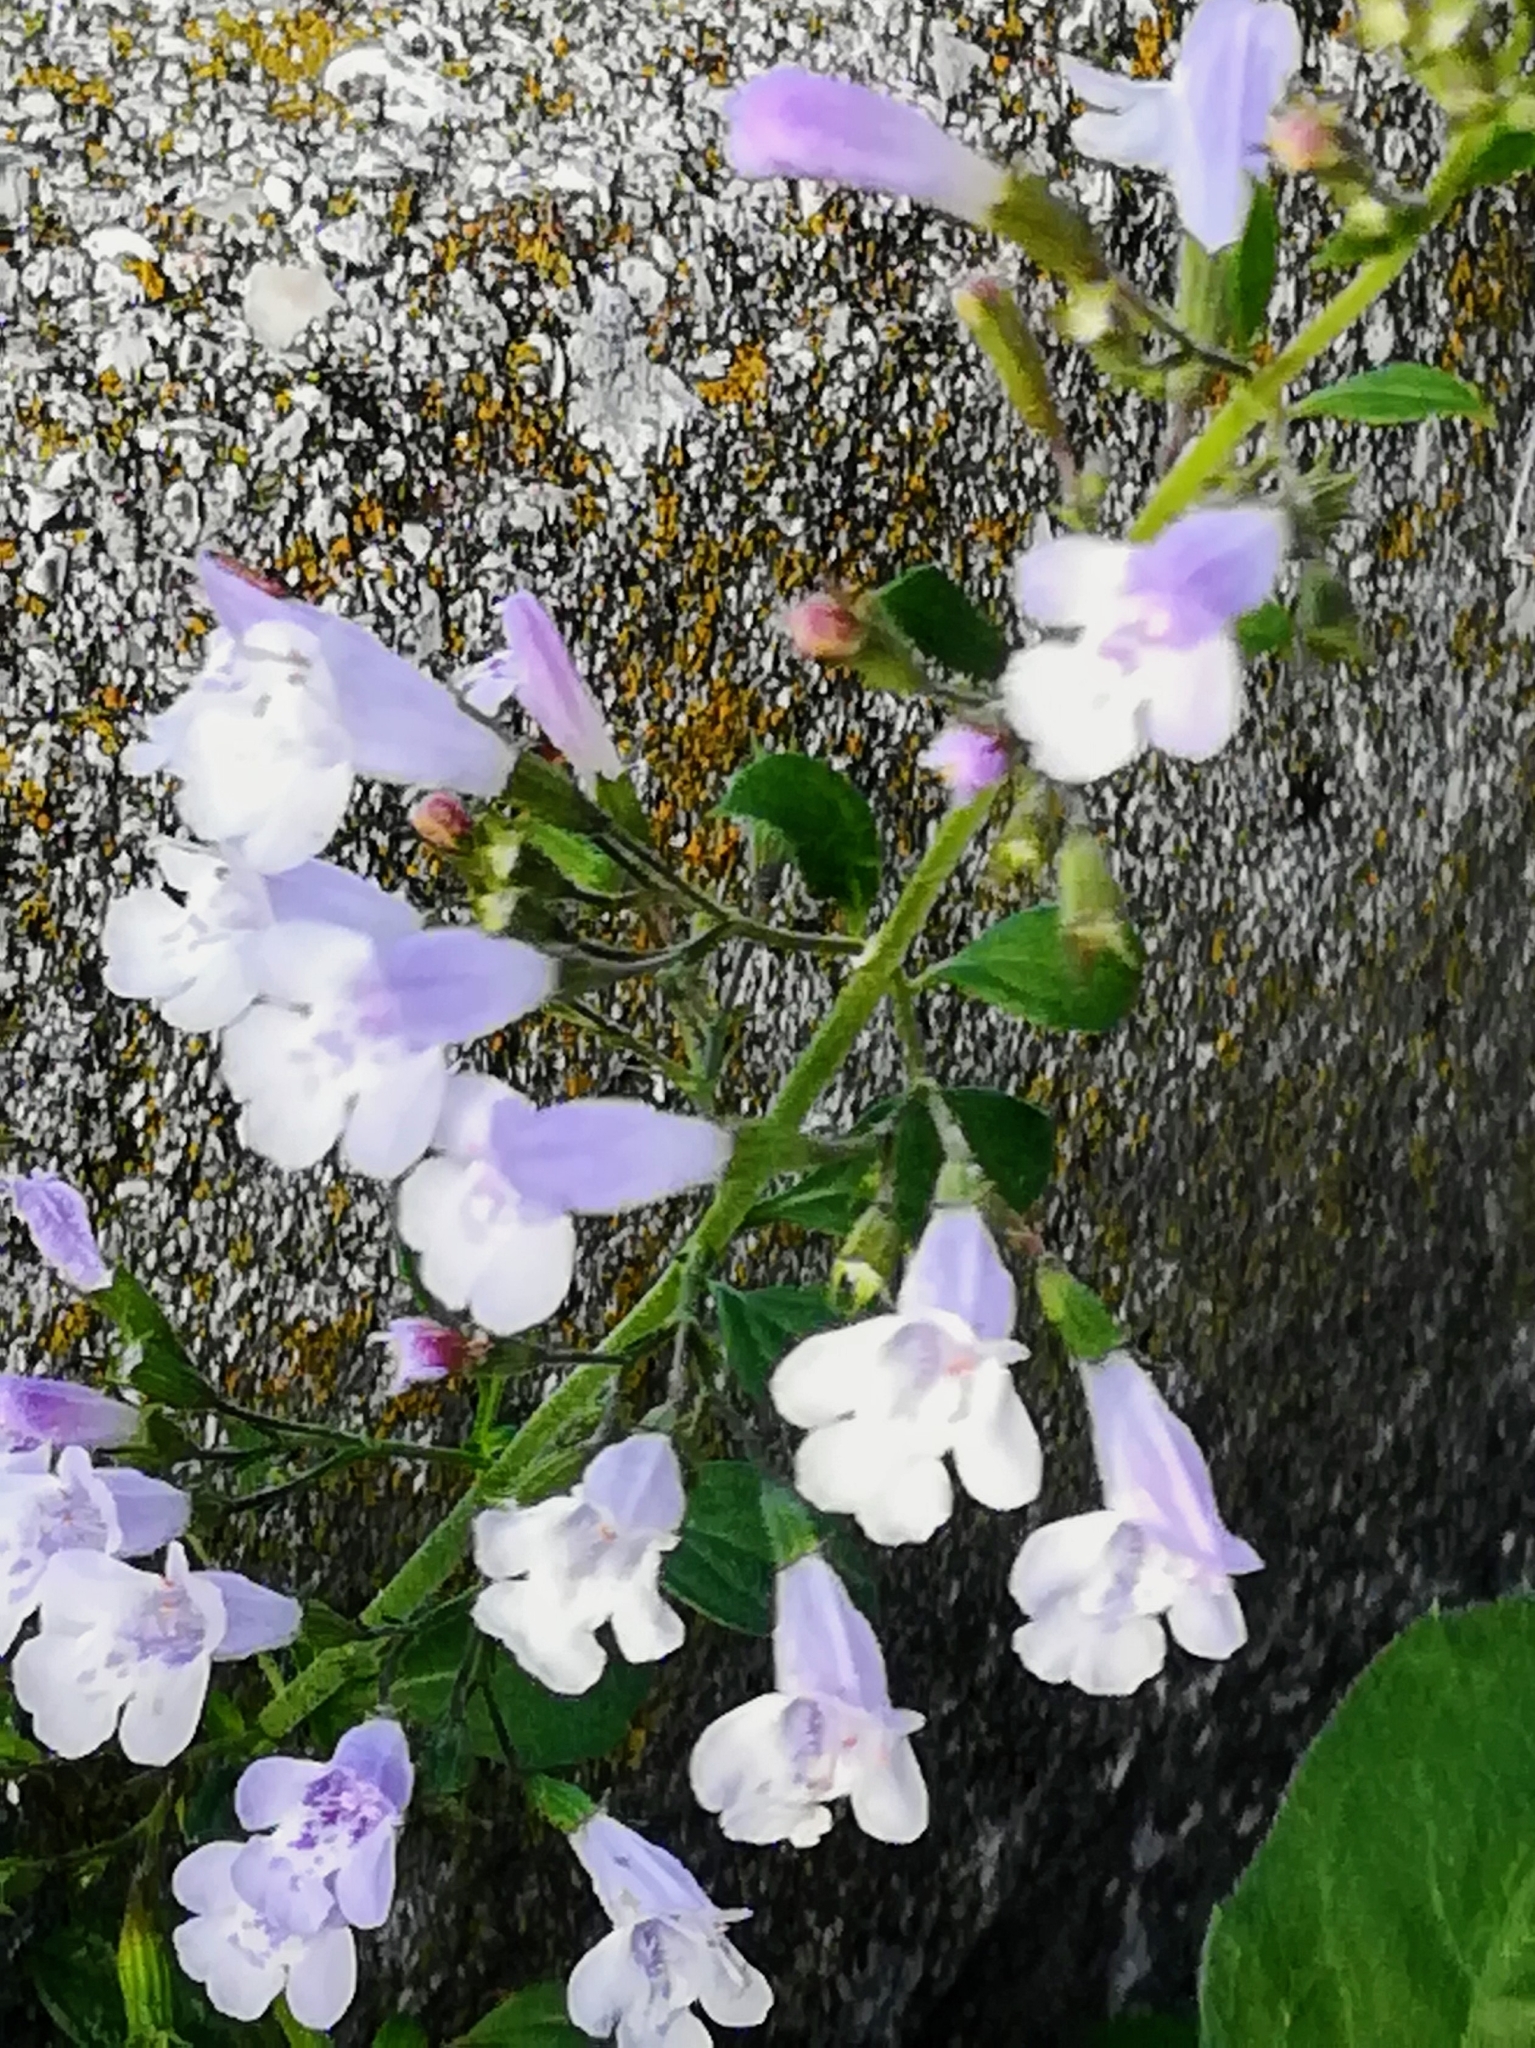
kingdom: Plantae
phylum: Tracheophyta
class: Magnoliopsida
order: Lamiales
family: Lamiaceae
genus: Clinopodium
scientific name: Clinopodium nepeta
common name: Lesser calamint
